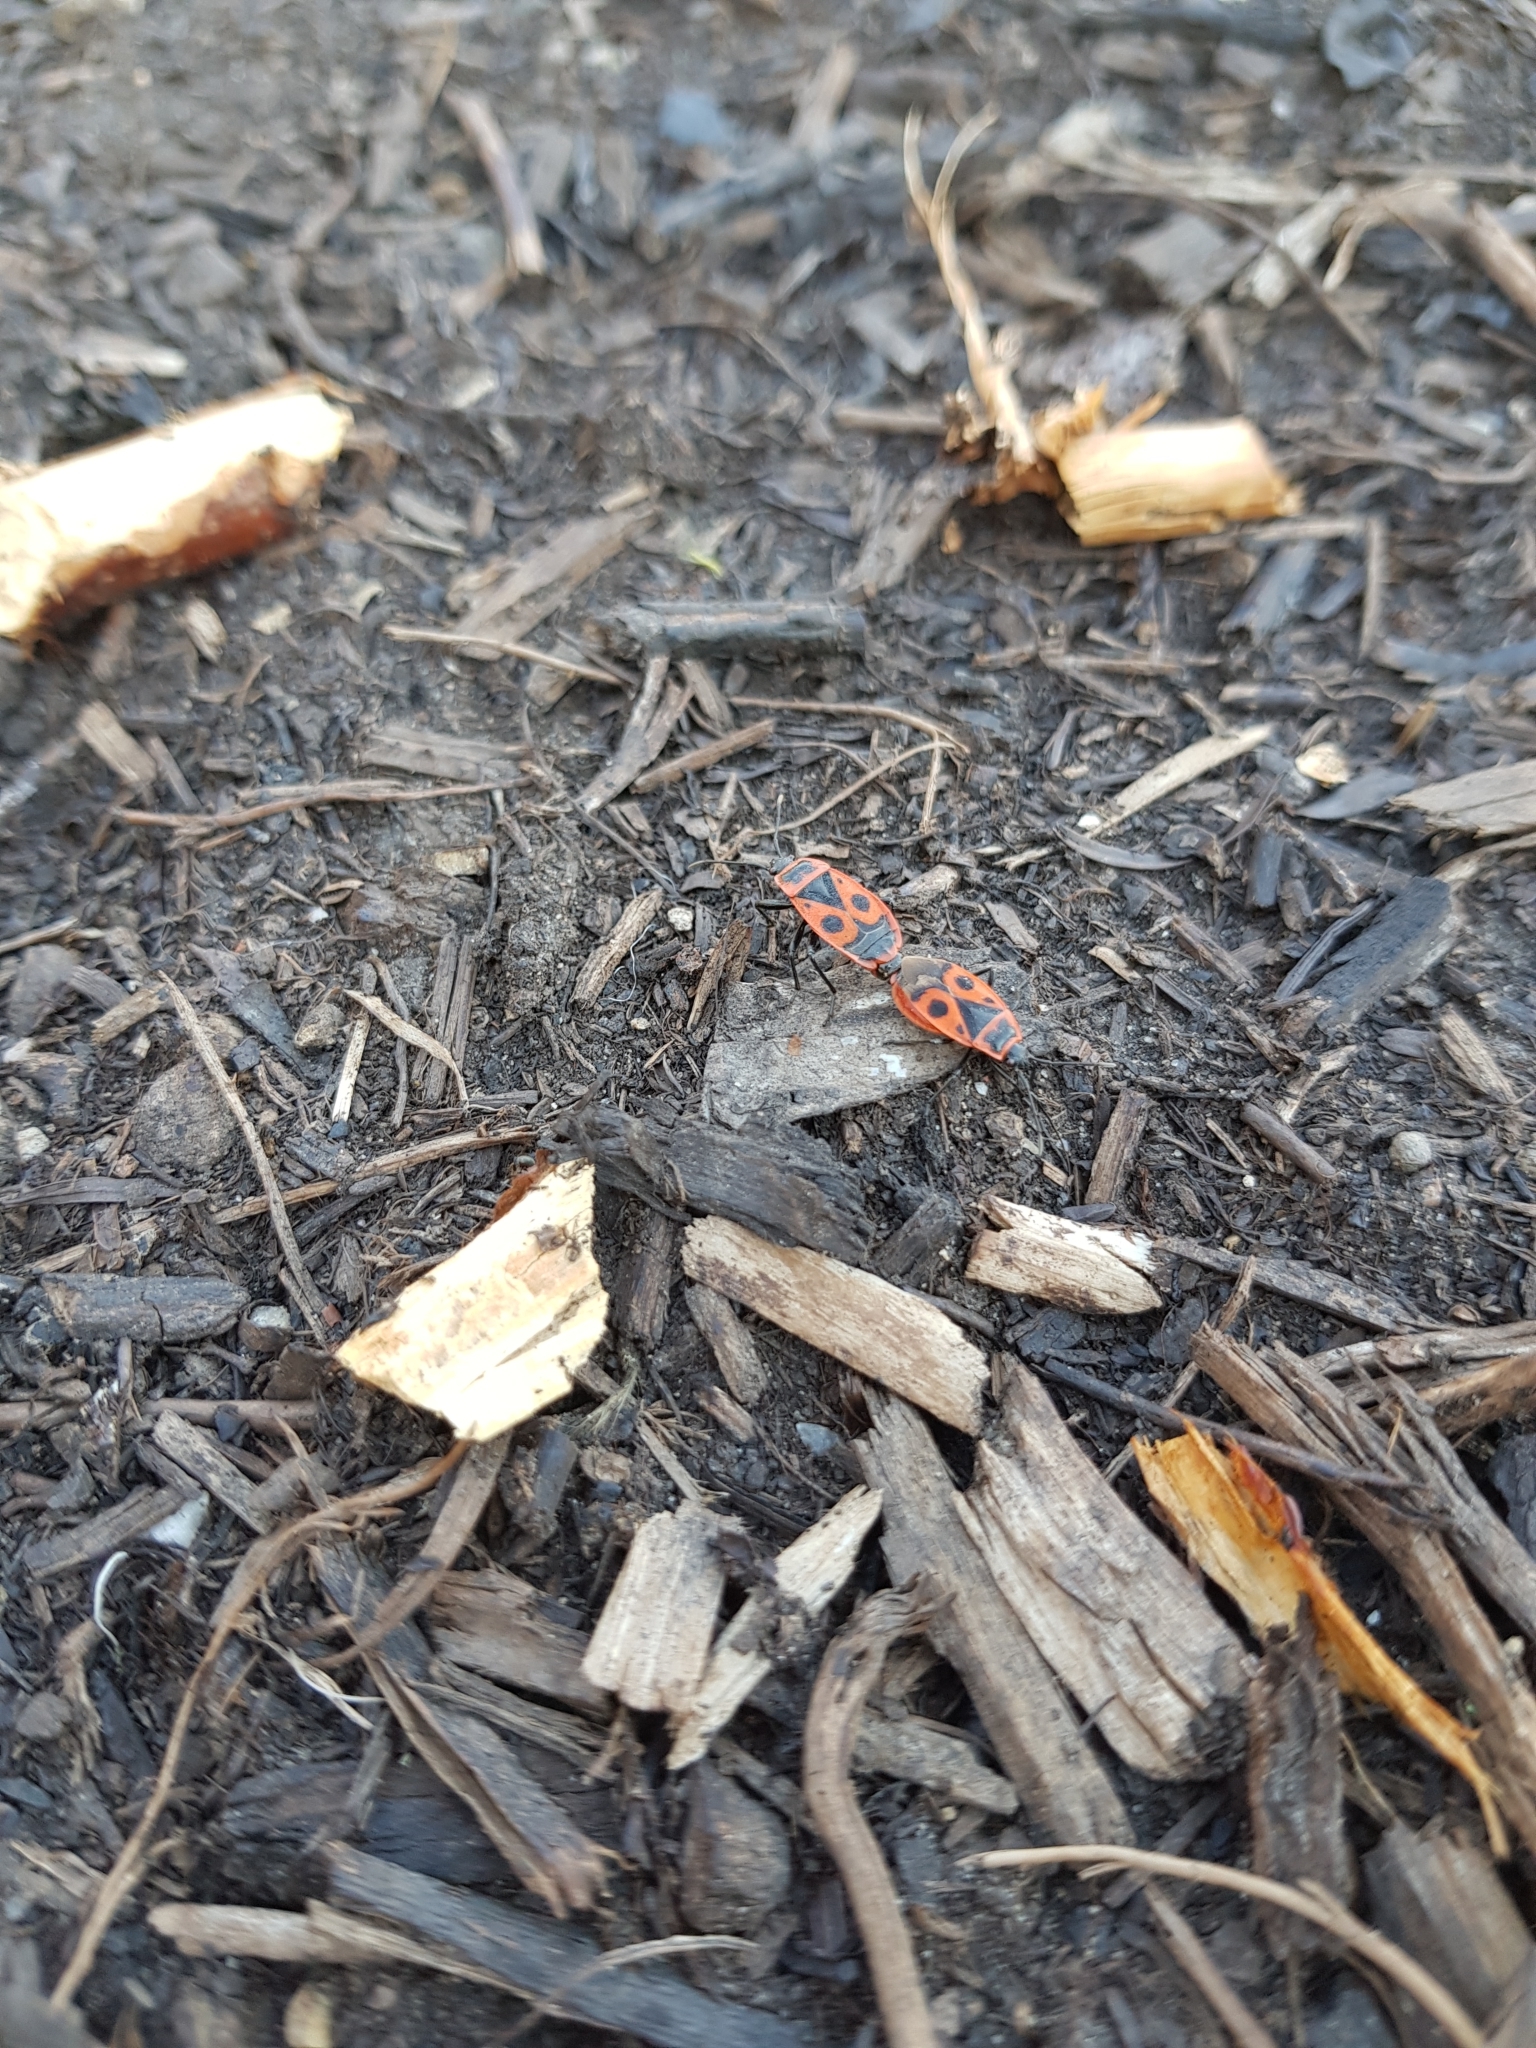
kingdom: Animalia
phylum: Arthropoda
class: Insecta
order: Hemiptera
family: Pyrrhocoridae
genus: Pyrrhocoris
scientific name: Pyrrhocoris apterus
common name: Firebug
